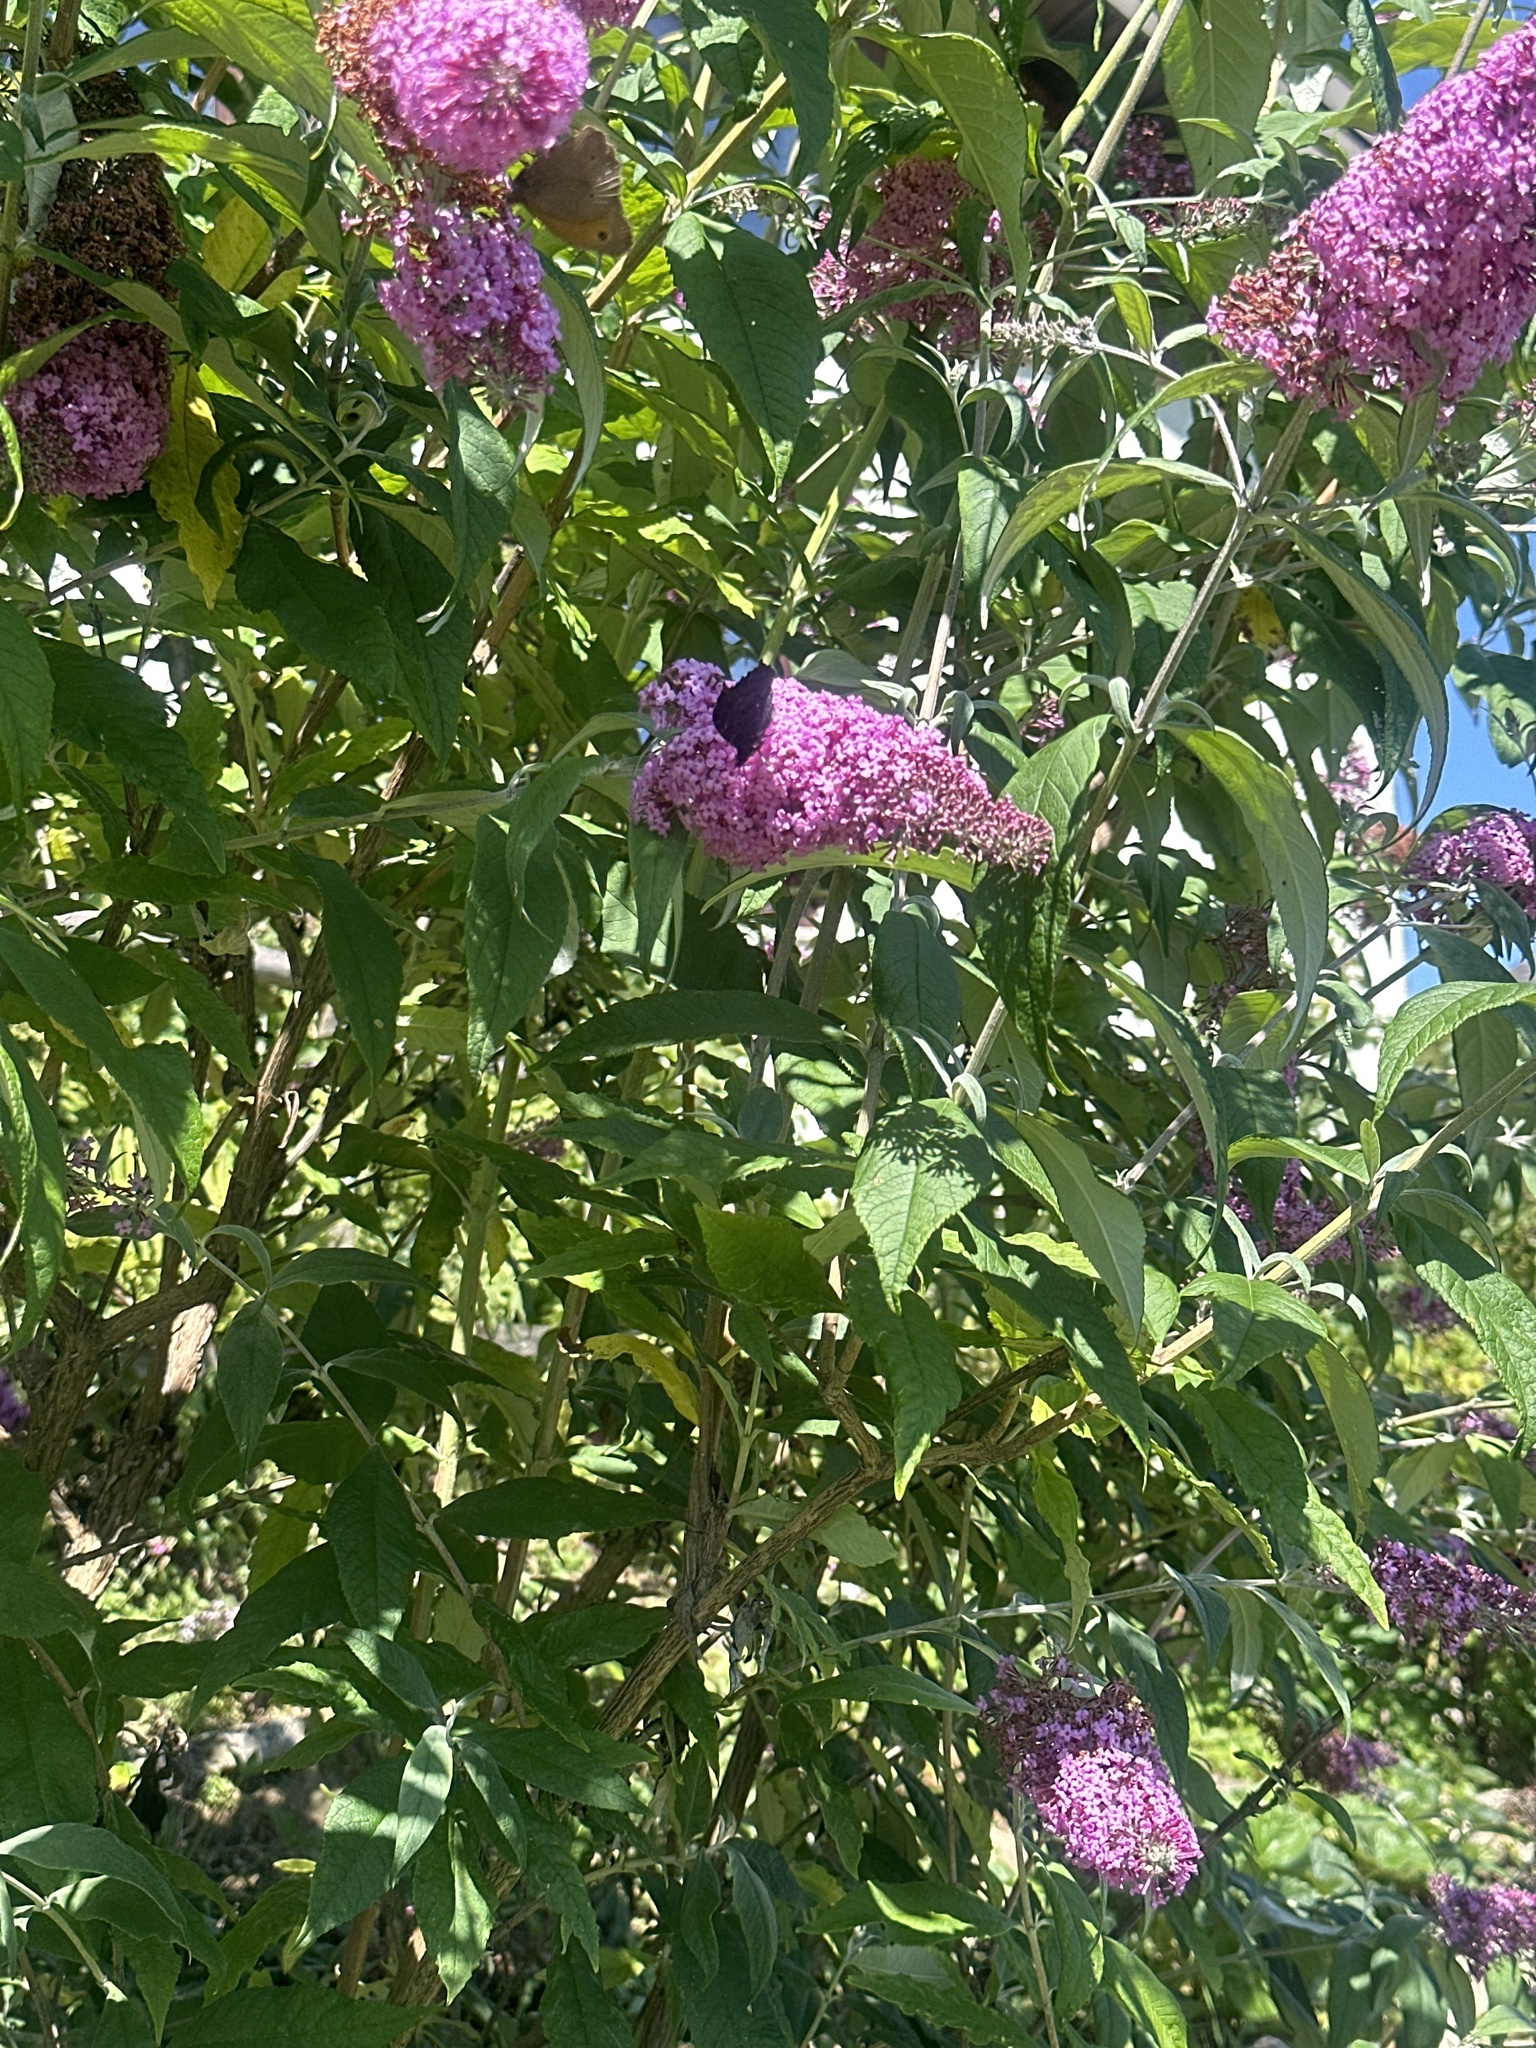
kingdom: Animalia
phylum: Arthropoda
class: Insecta
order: Lepidoptera
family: Nymphalidae
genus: Aglais
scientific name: Aglais io
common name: Peacock
